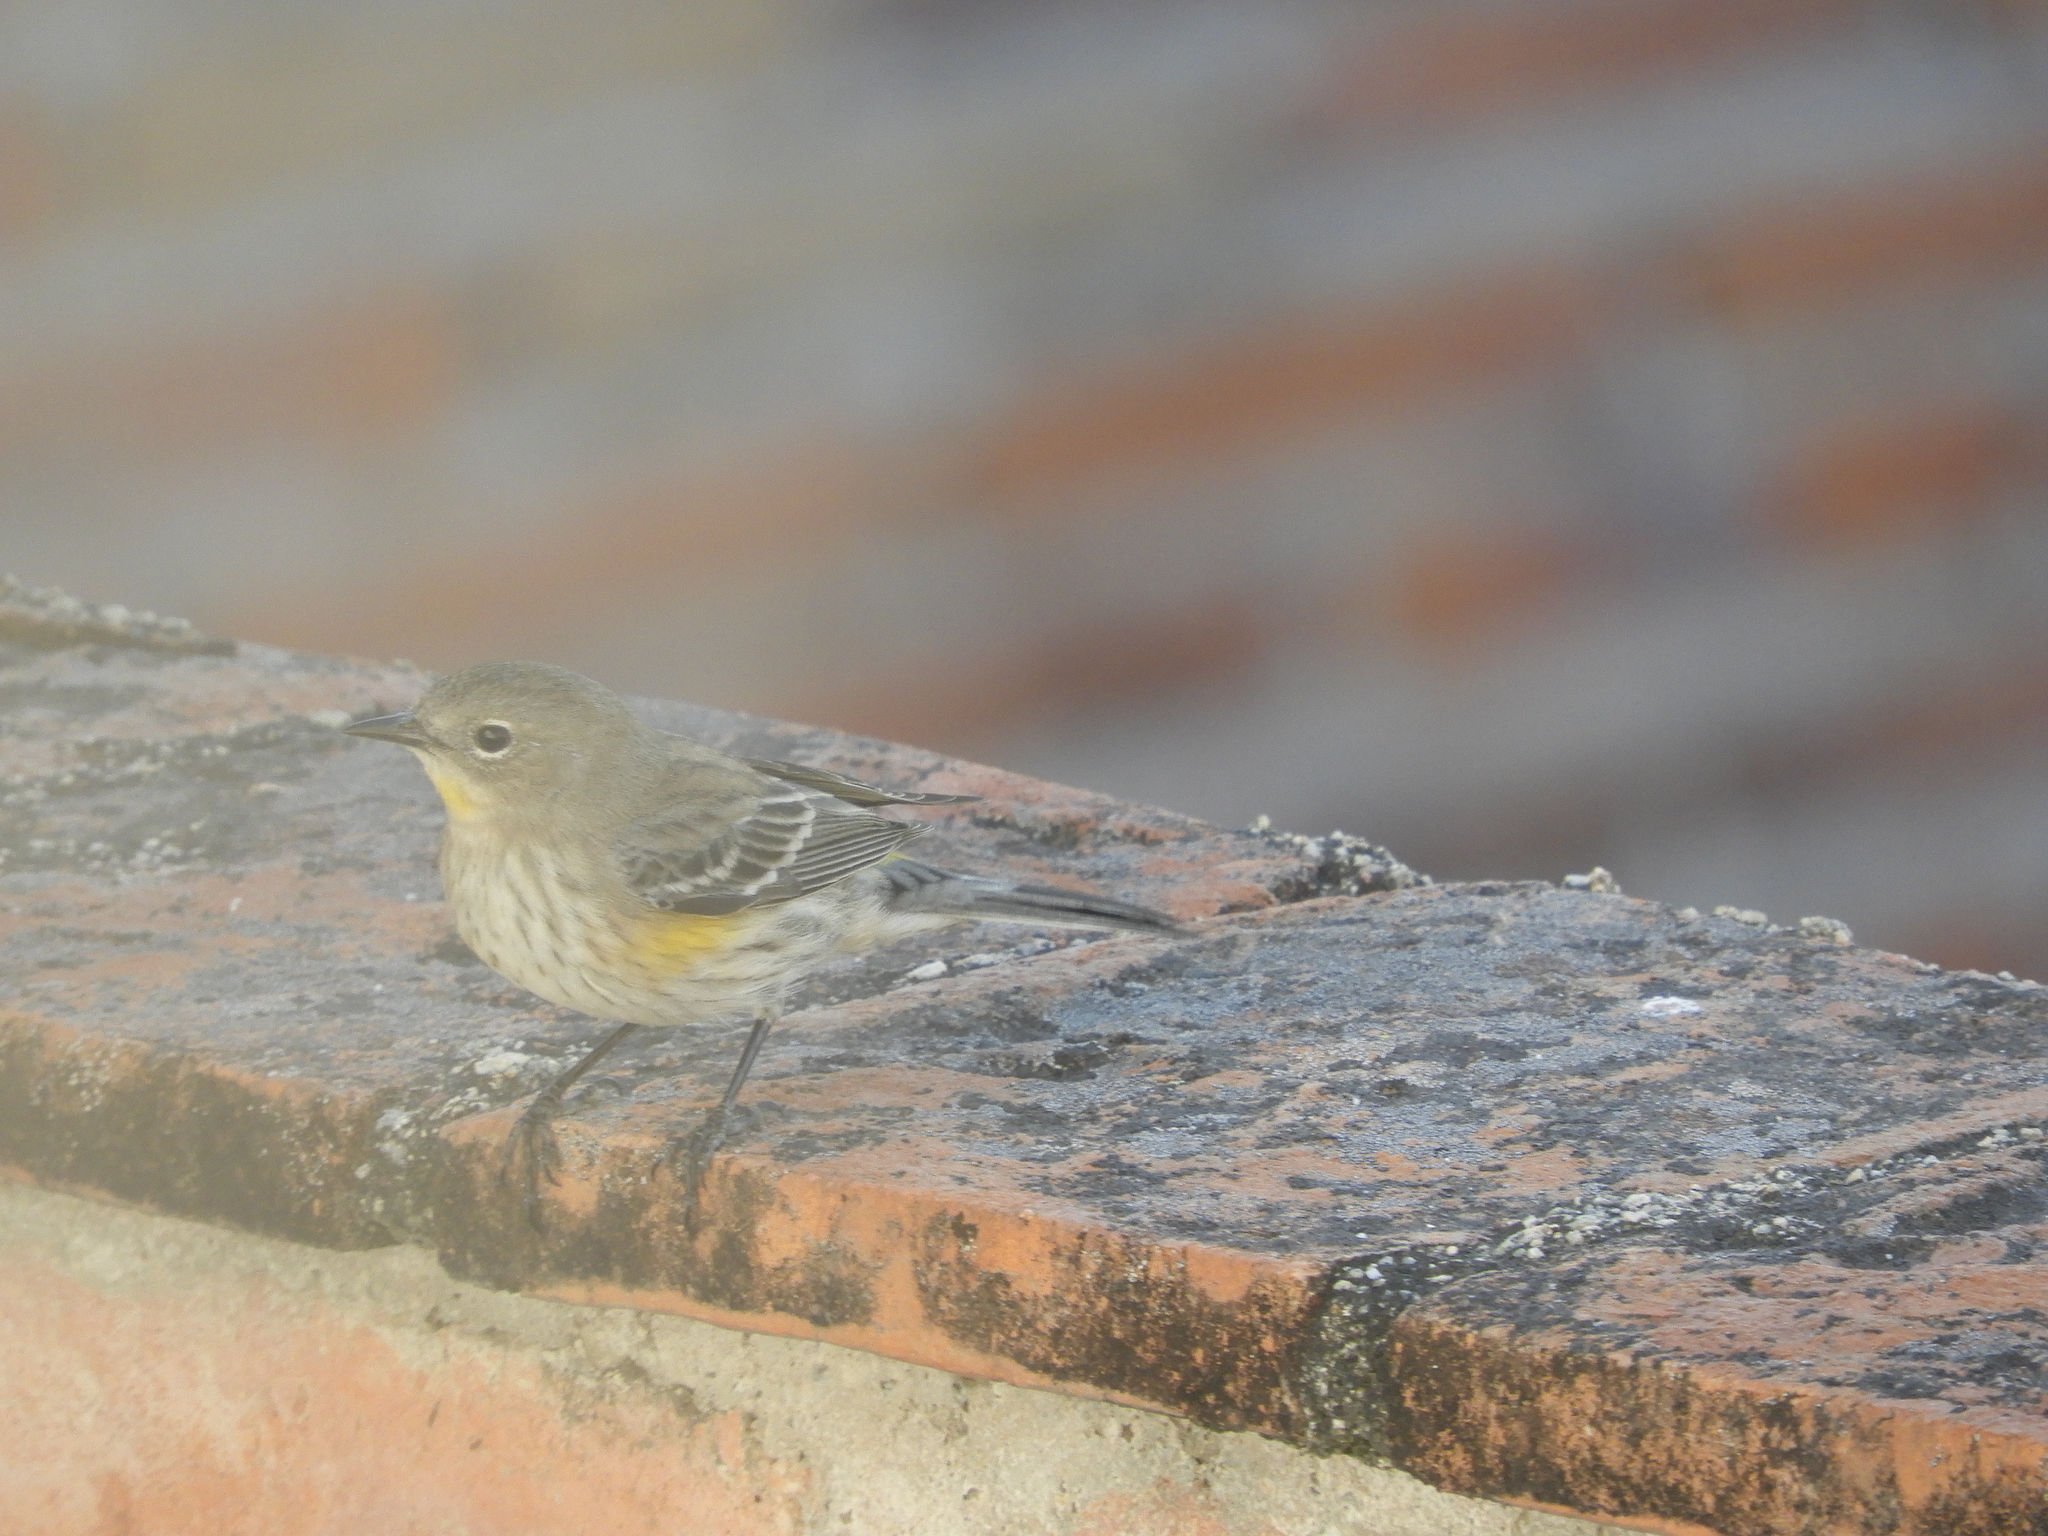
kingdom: Animalia
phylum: Chordata
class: Aves
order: Passeriformes
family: Parulidae
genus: Setophaga
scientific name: Setophaga coronata
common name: Myrtle warbler
